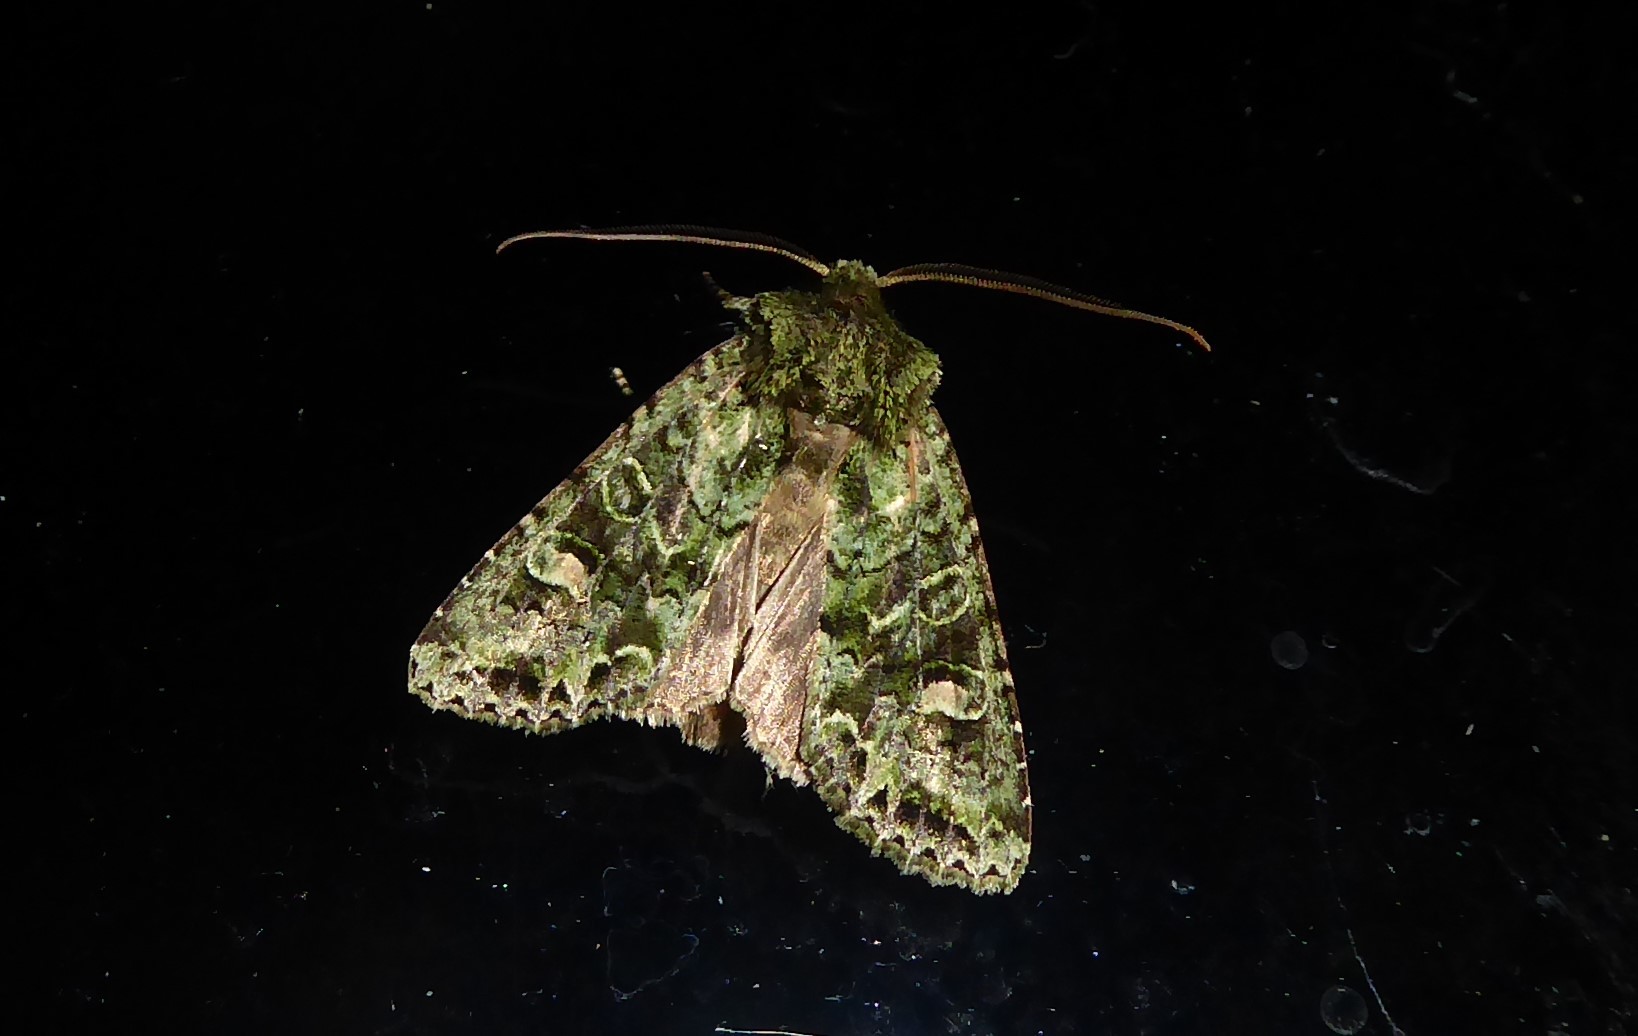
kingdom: Animalia
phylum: Arthropoda
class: Insecta
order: Lepidoptera
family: Noctuidae
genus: Ichneutica
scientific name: Ichneutica
